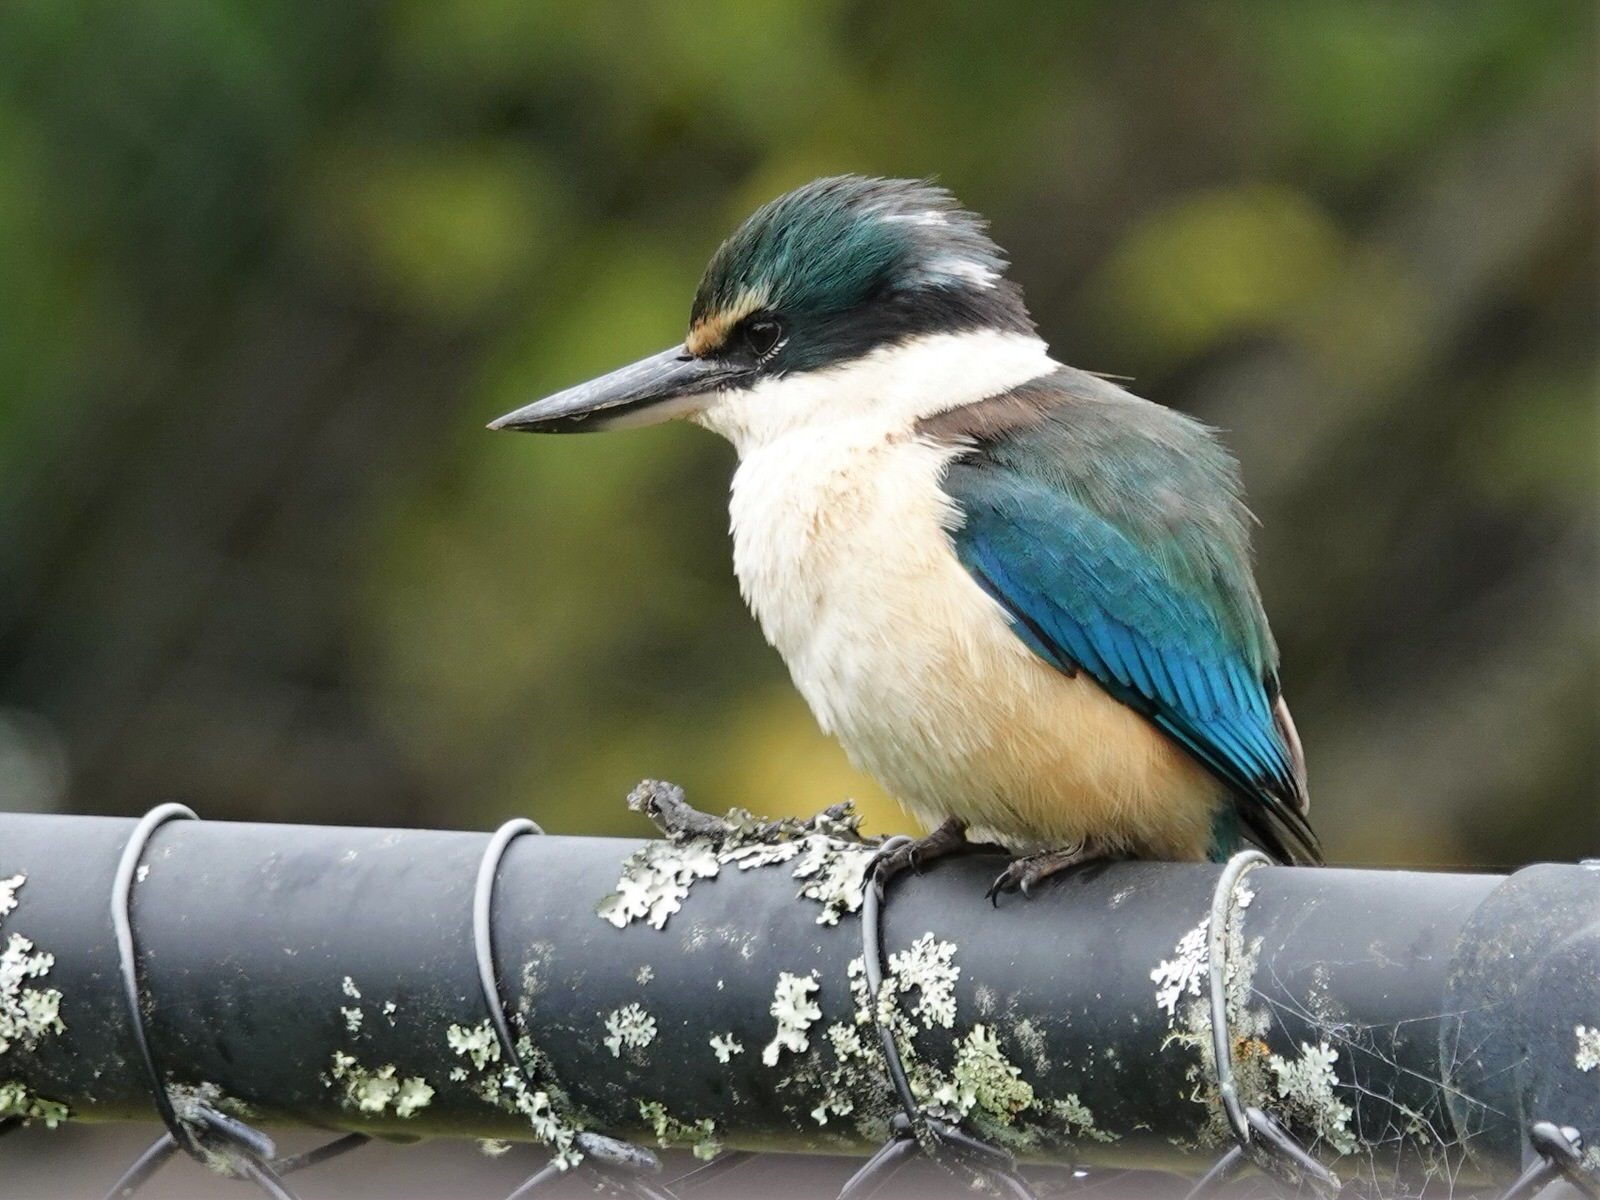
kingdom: Animalia
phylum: Chordata
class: Aves
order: Coraciiformes
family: Alcedinidae
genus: Todiramphus
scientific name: Todiramphus sanctus
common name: Sacred kingfisher
